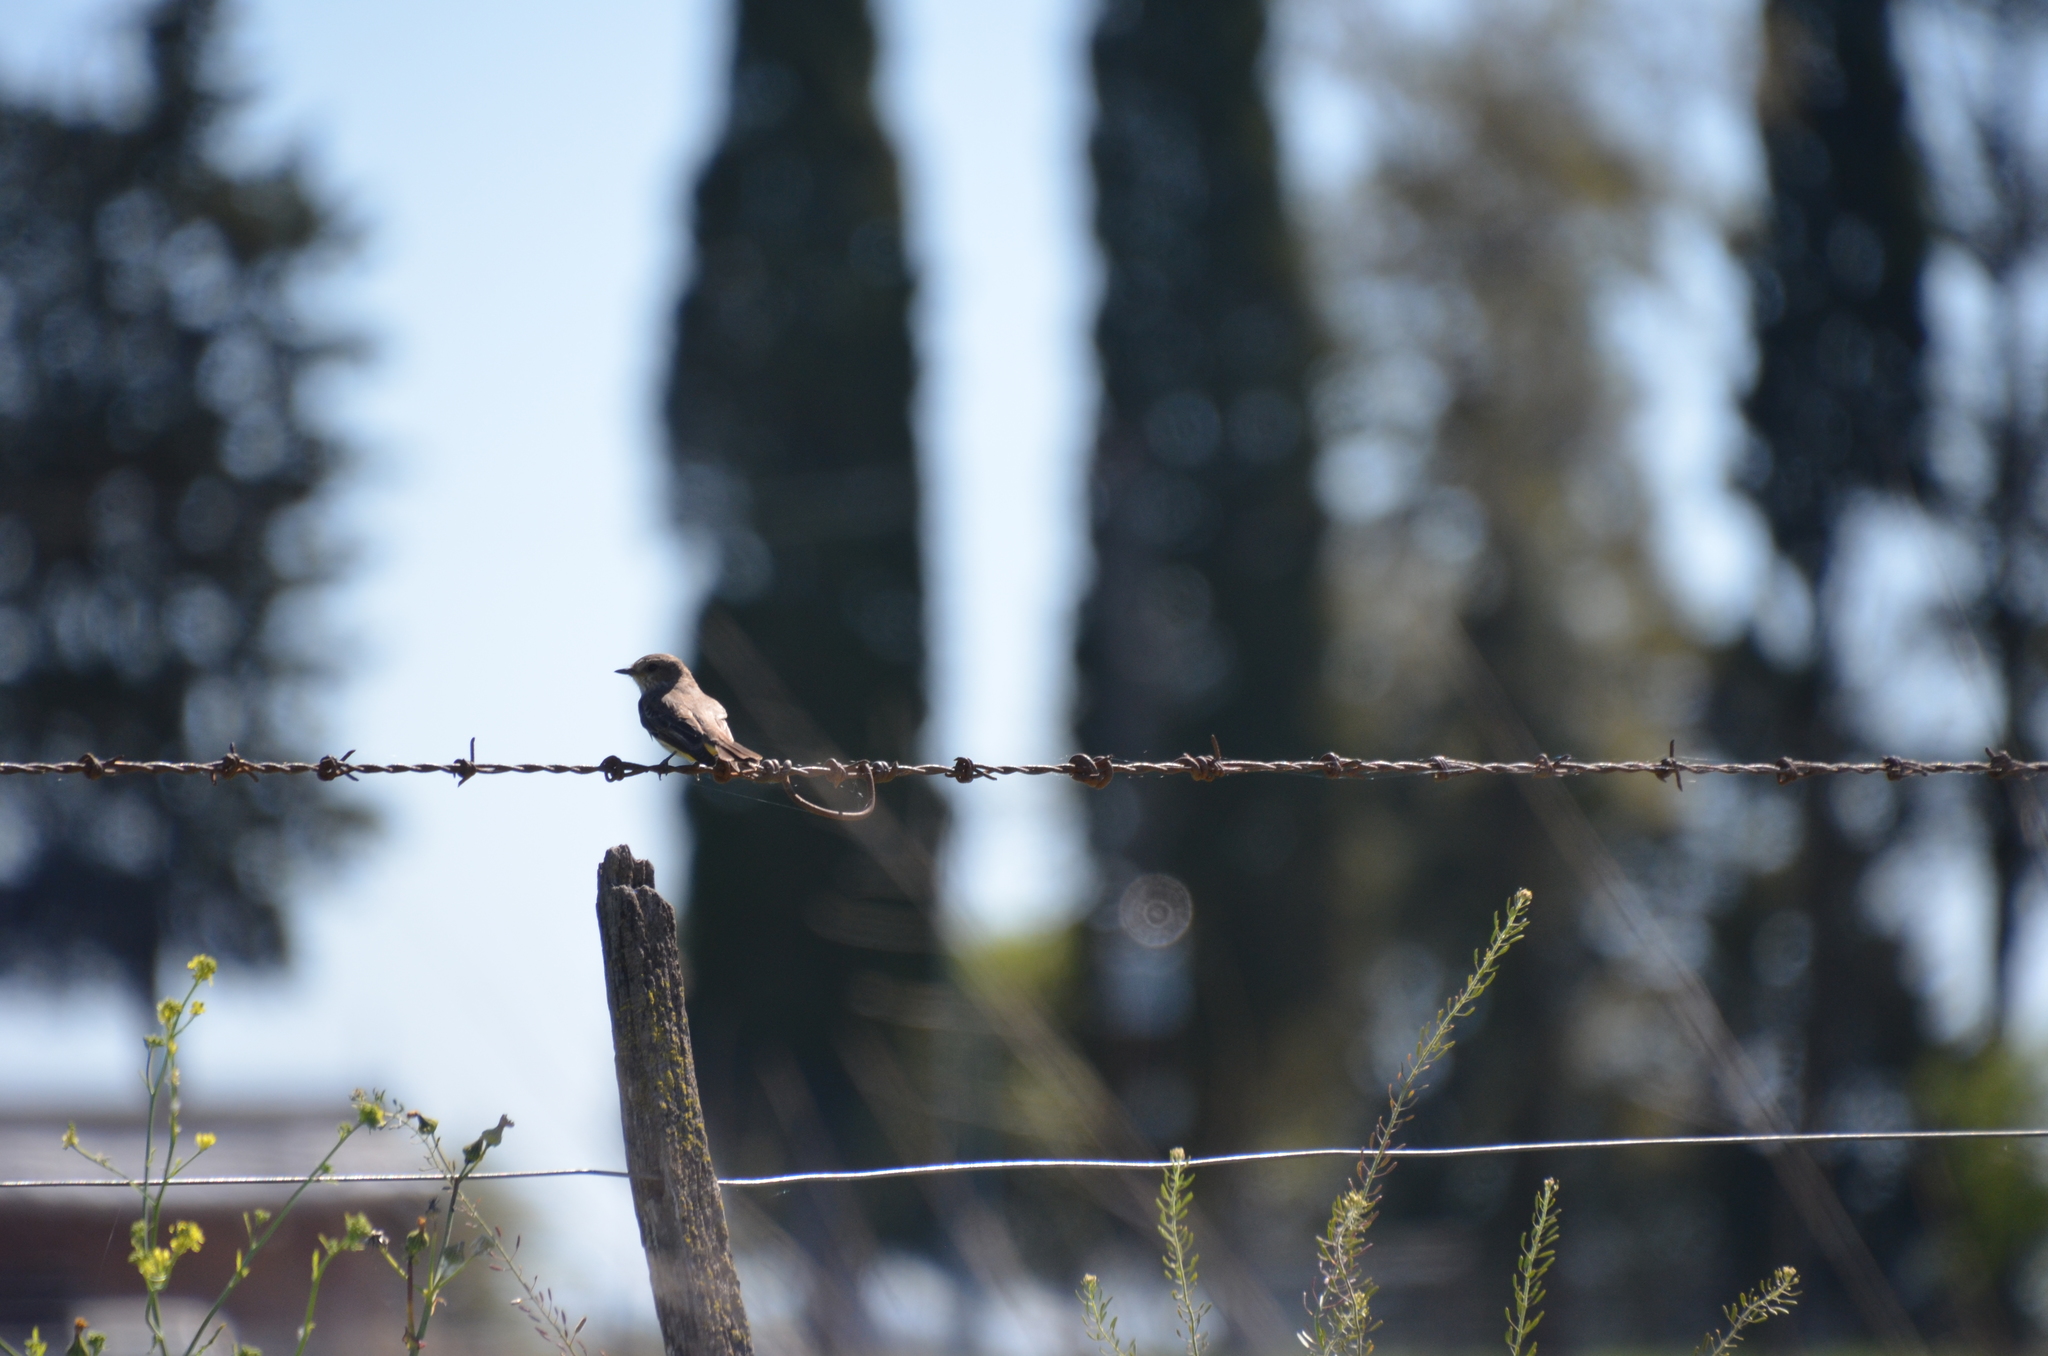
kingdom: Animalia
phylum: Chordata
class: Aves
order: Passeriformes
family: Tyrannidae
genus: Pyrocephalus
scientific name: Pyrocephalus rubinus
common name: Vermilion flycatcher
